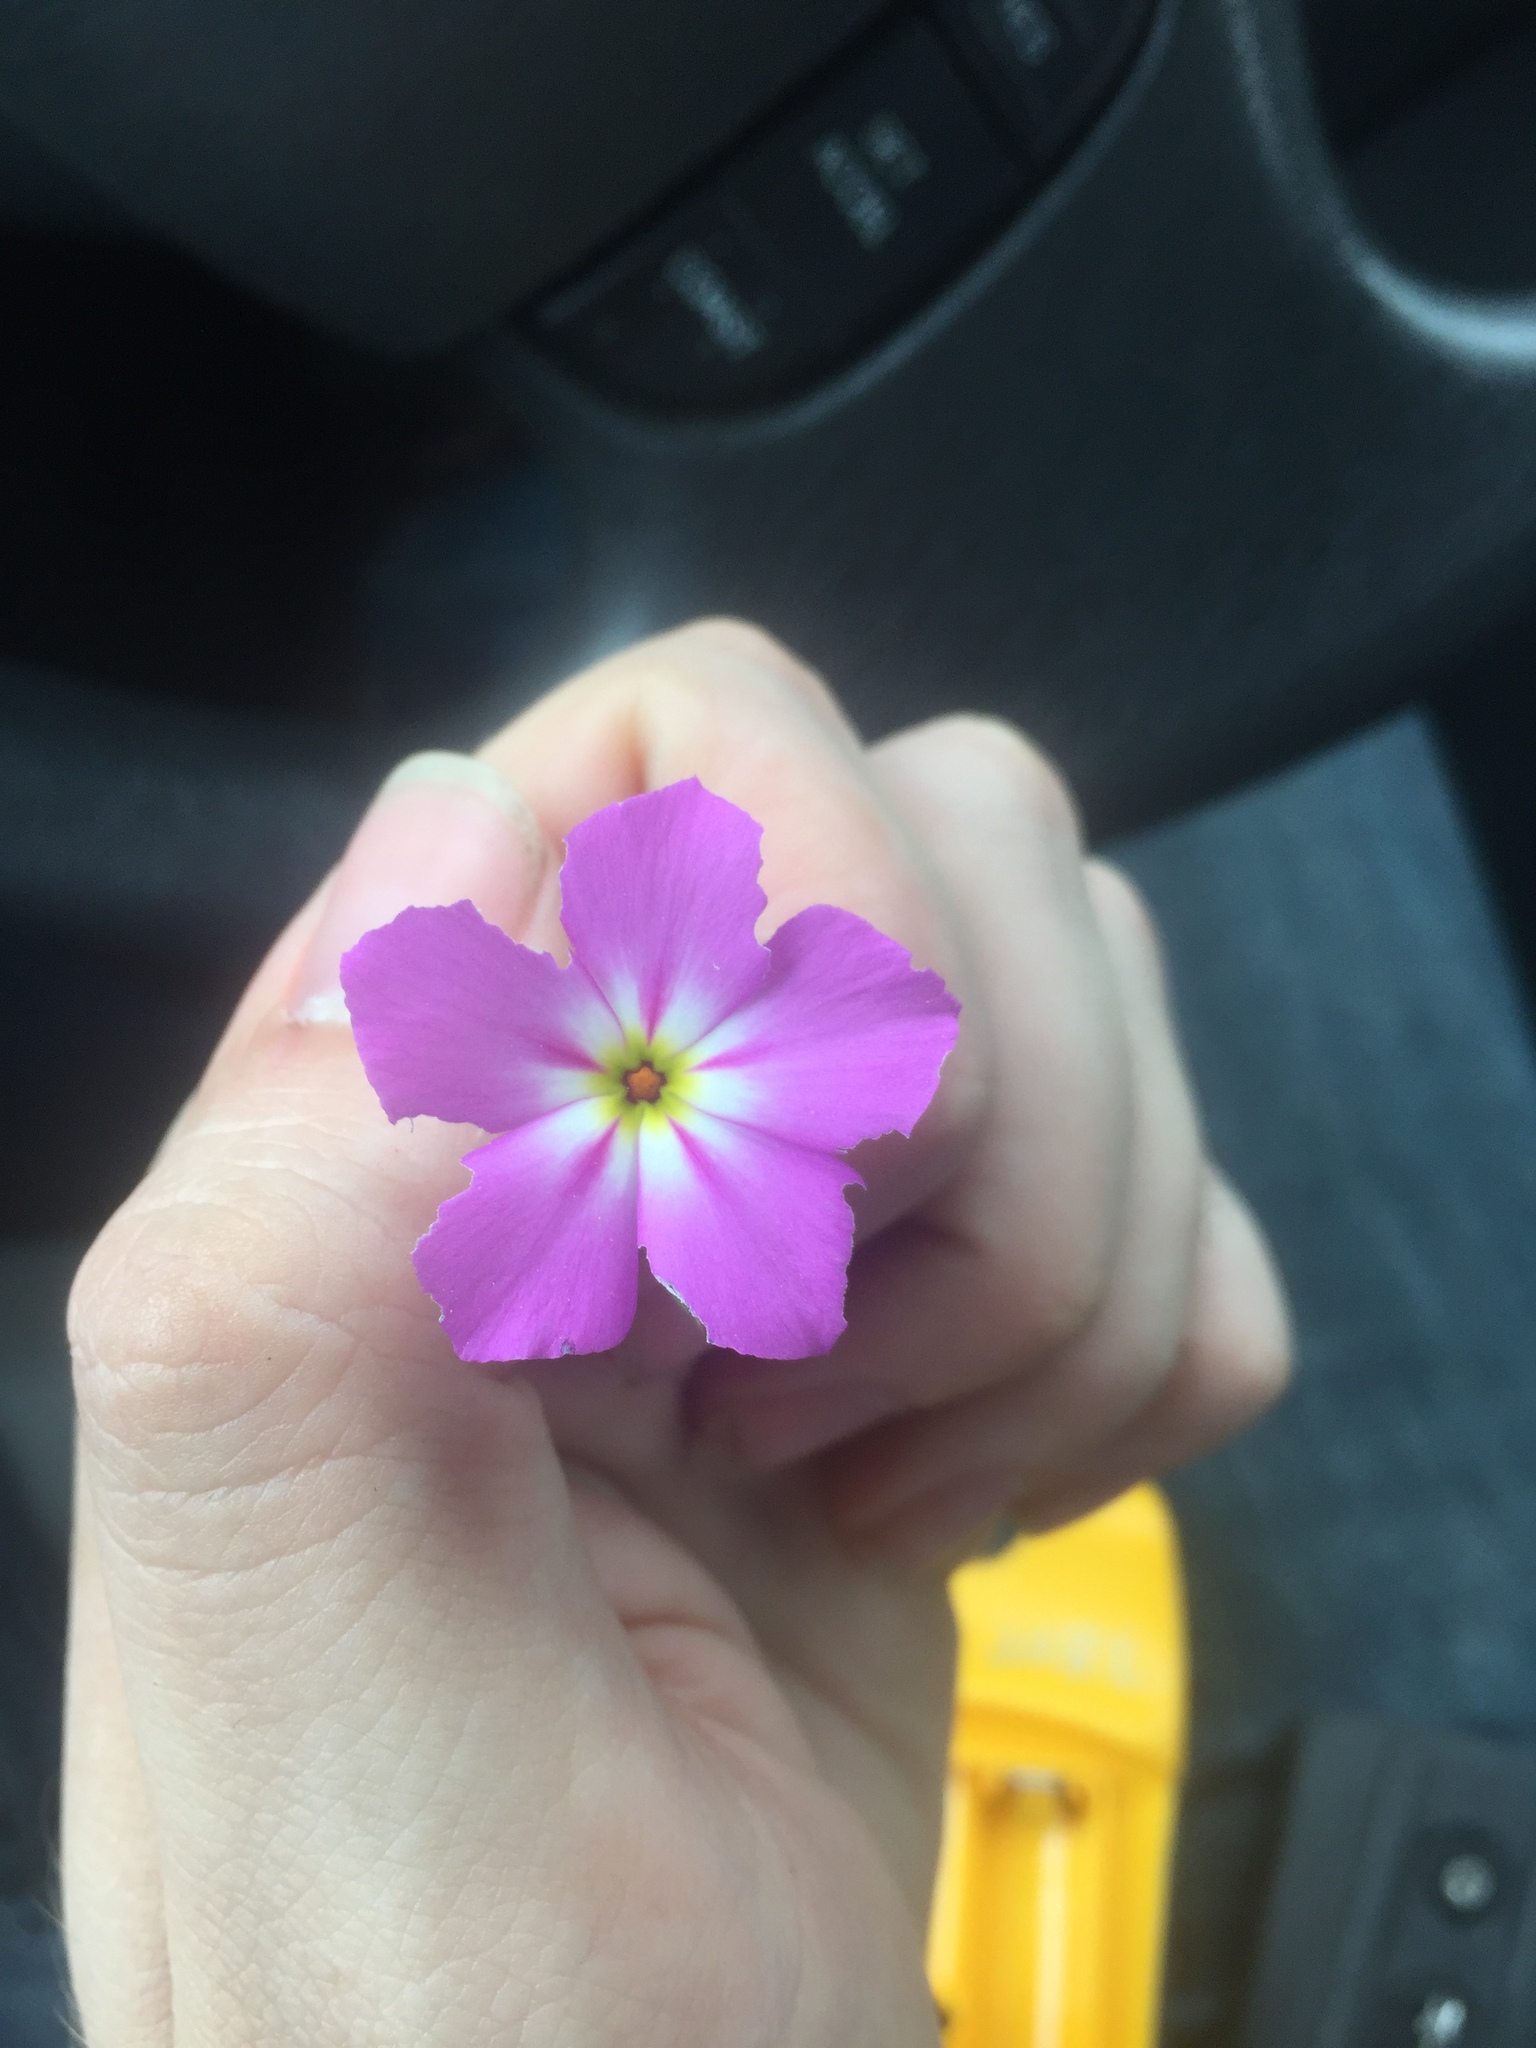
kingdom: Plantae
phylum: Tracheophyta
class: Magnoliopsida
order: Ericales
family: Polemoniaceae
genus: Phlox
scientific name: Phlox roemeriana
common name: Roemer's phlox
